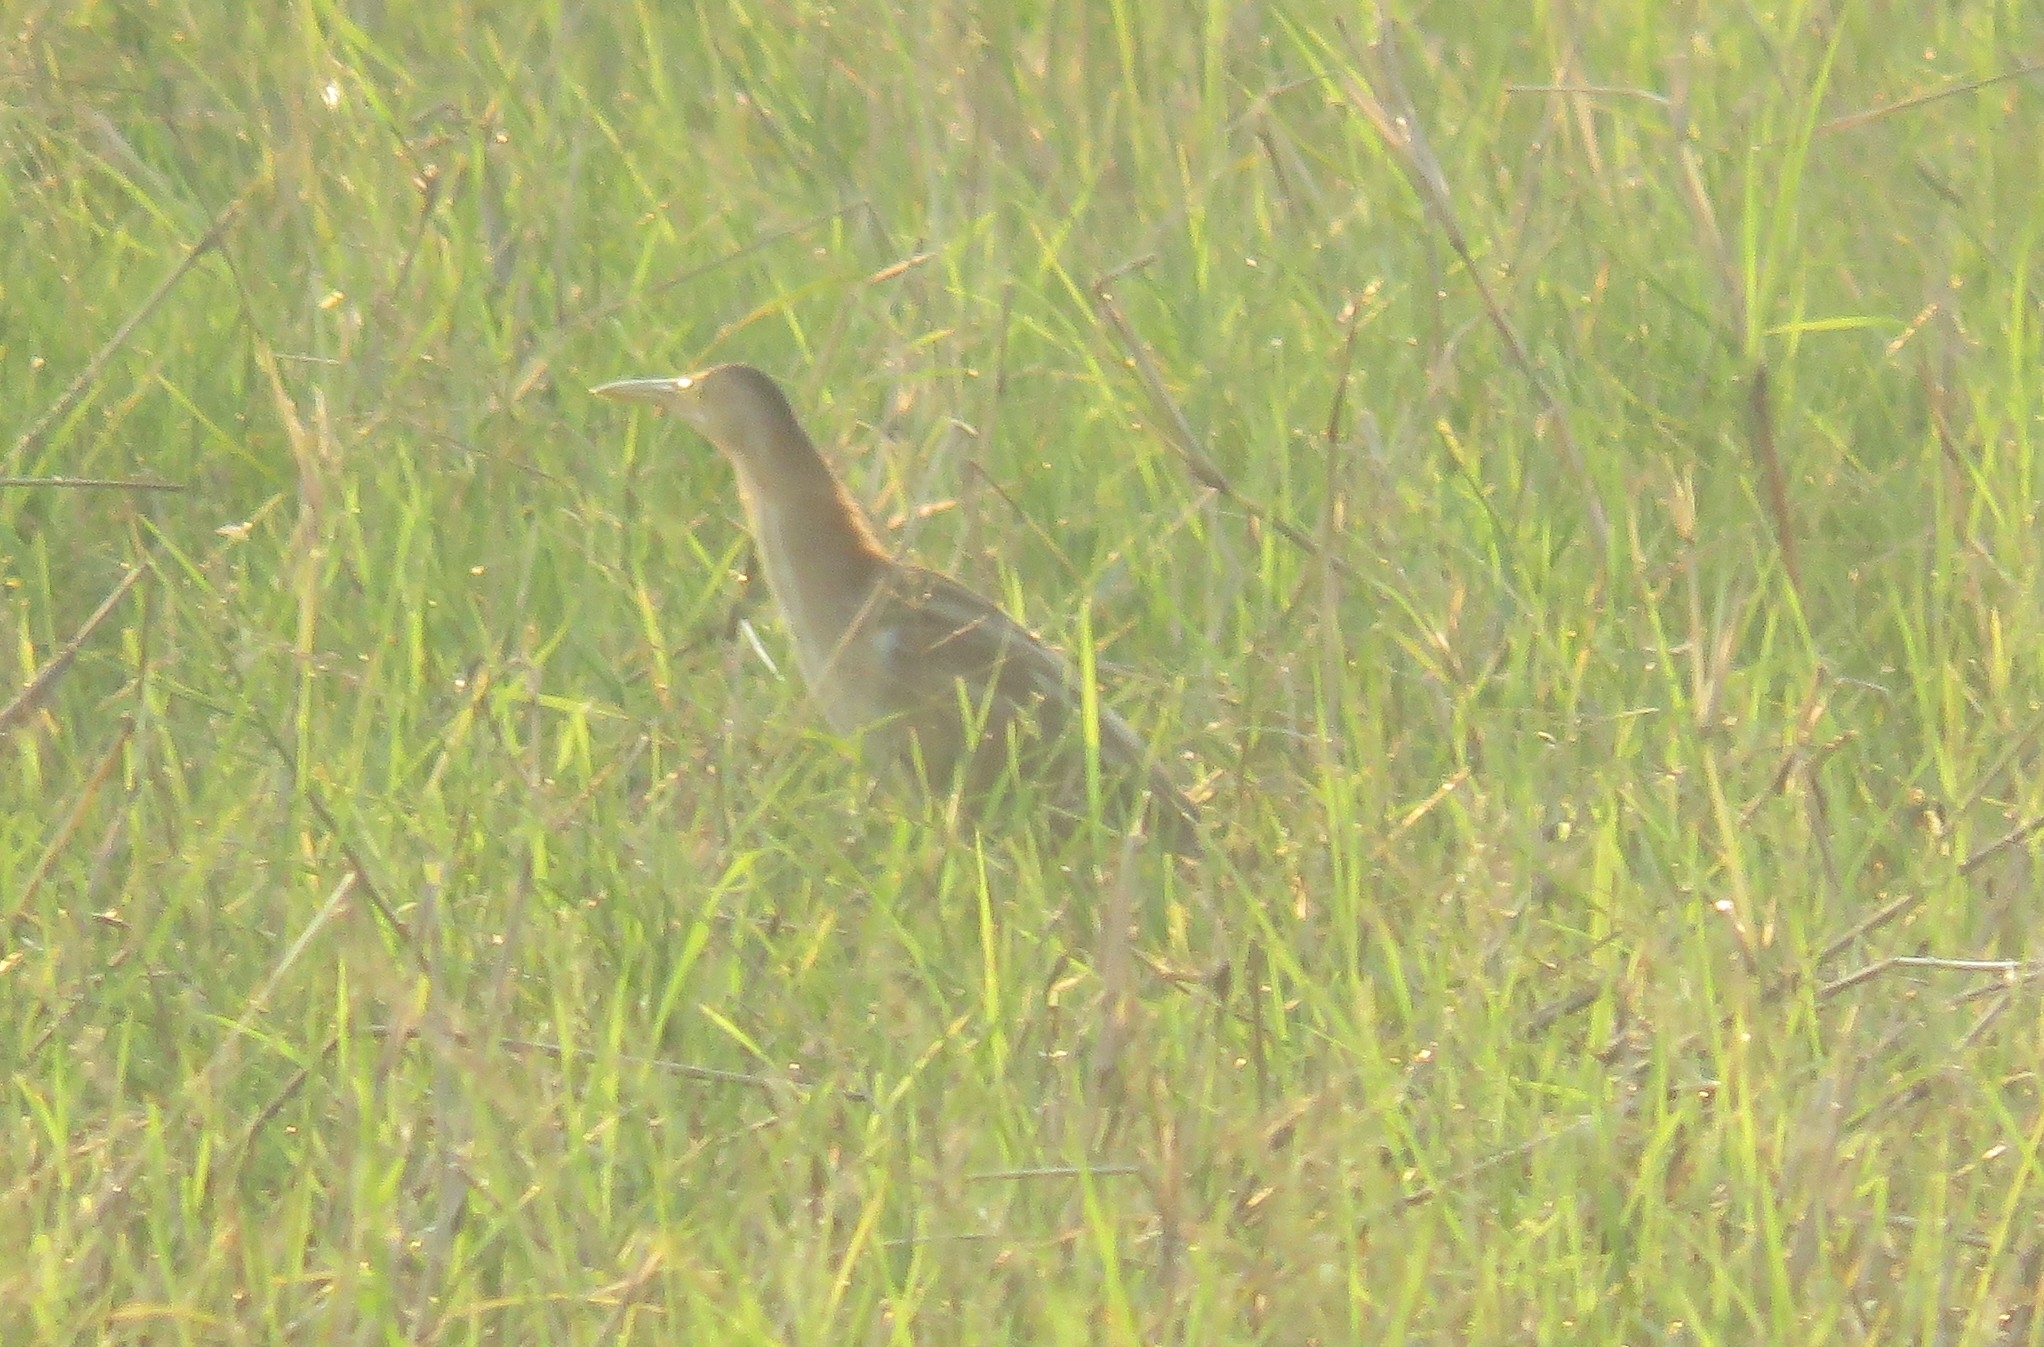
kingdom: Animalia
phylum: Chordata
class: Aves
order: Pelecaniformes
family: Ardeidae
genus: Ixobrychus
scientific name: Ixobrychus sinensis
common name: Yellow bittern
